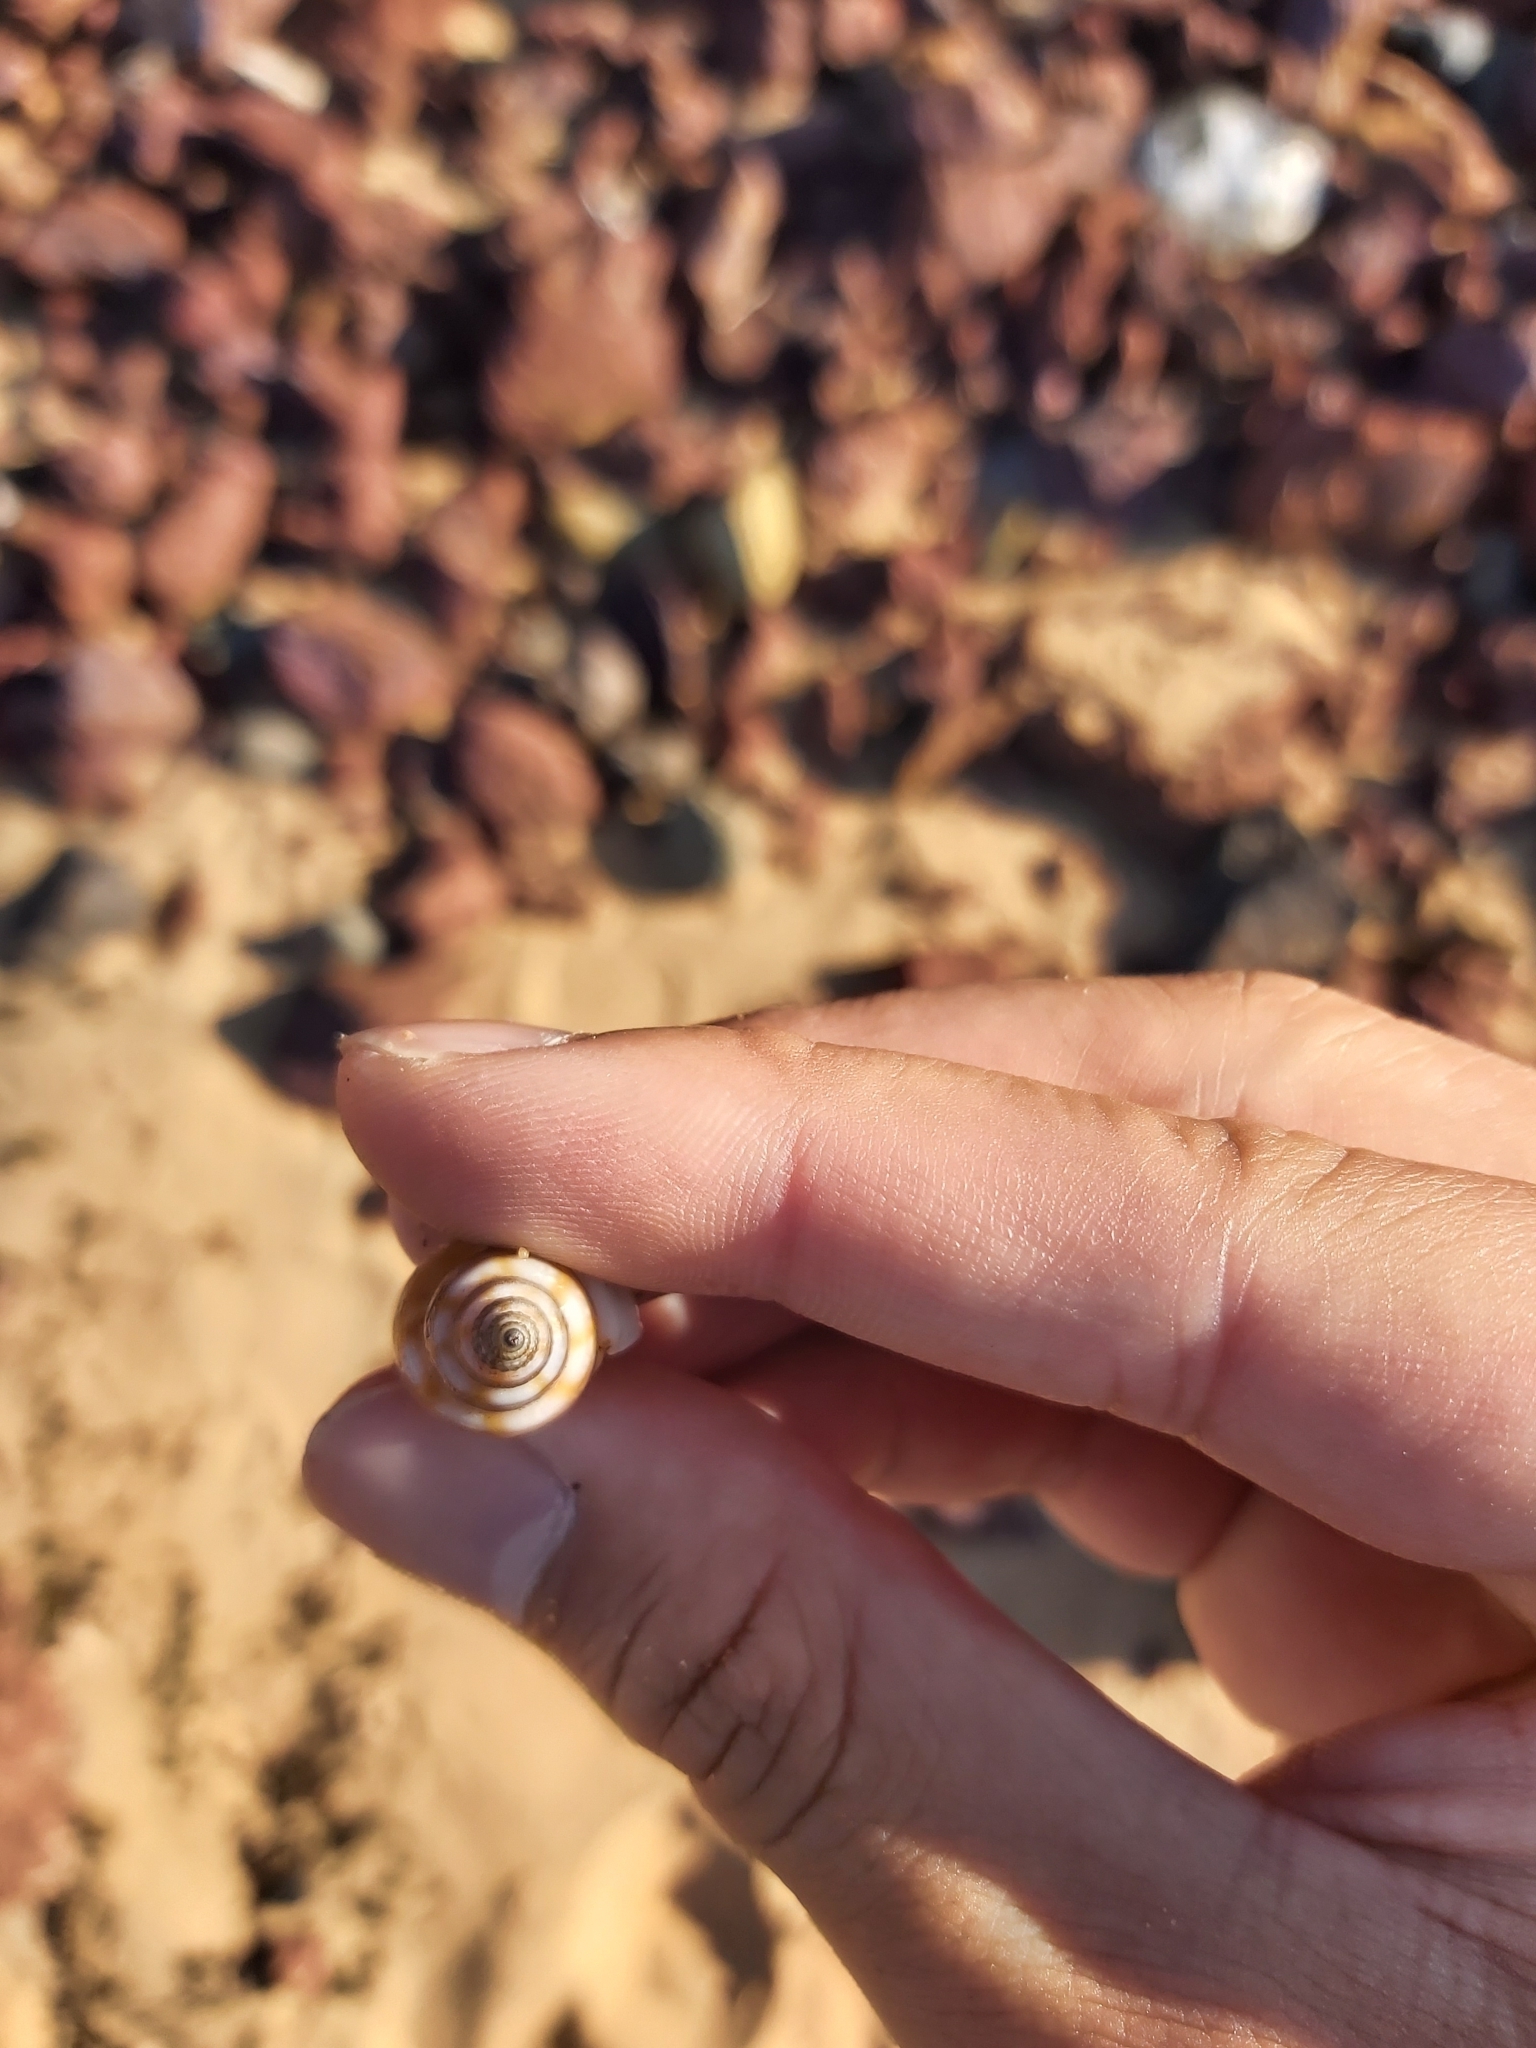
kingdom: Animalia
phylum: Mollusca
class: Gastropoda
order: Neogastropoda
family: Nassariidae
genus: Nassarius
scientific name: Nassarius particeps
